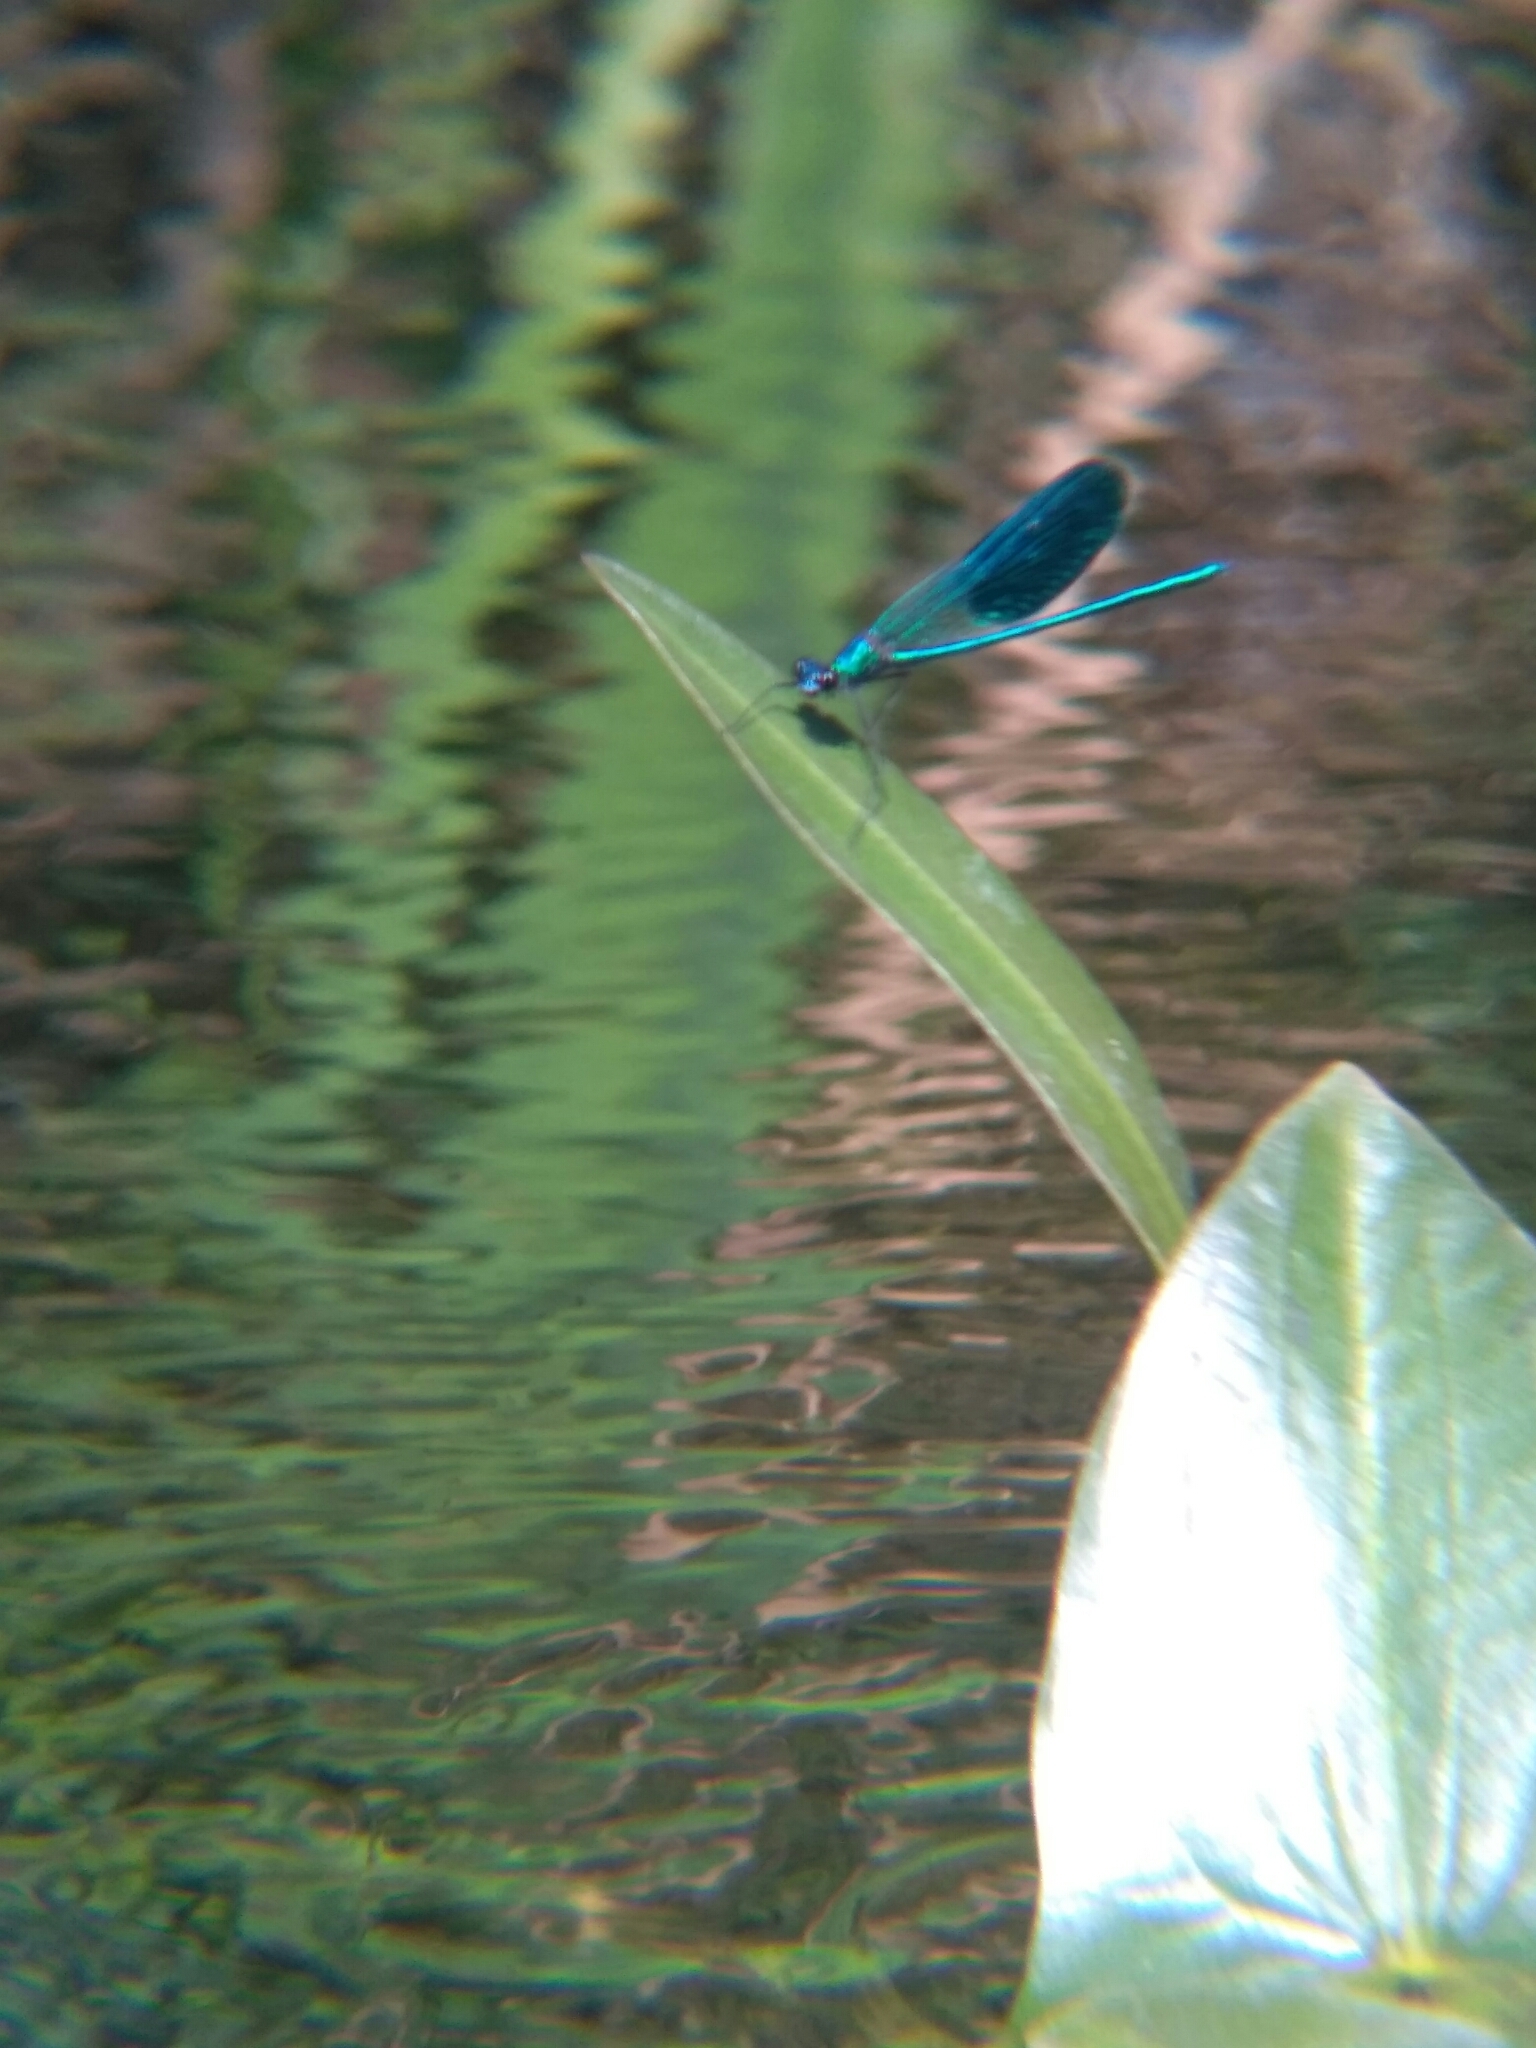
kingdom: Animalia
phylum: Arthropoda
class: Insecta
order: Odonata
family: Calopterygidae
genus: Calopteryx
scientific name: Calopteryx splendens
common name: Banded demoiselle
